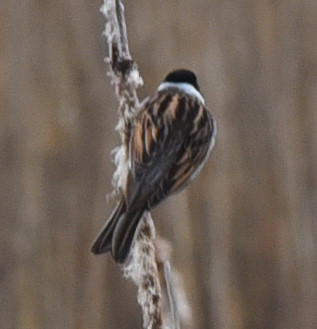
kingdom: Animalia
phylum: Chordata
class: Aves
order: Passeriformes
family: Emberizidae
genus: Emberiza
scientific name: Emberiza schoeniclus
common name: Reed bunting
